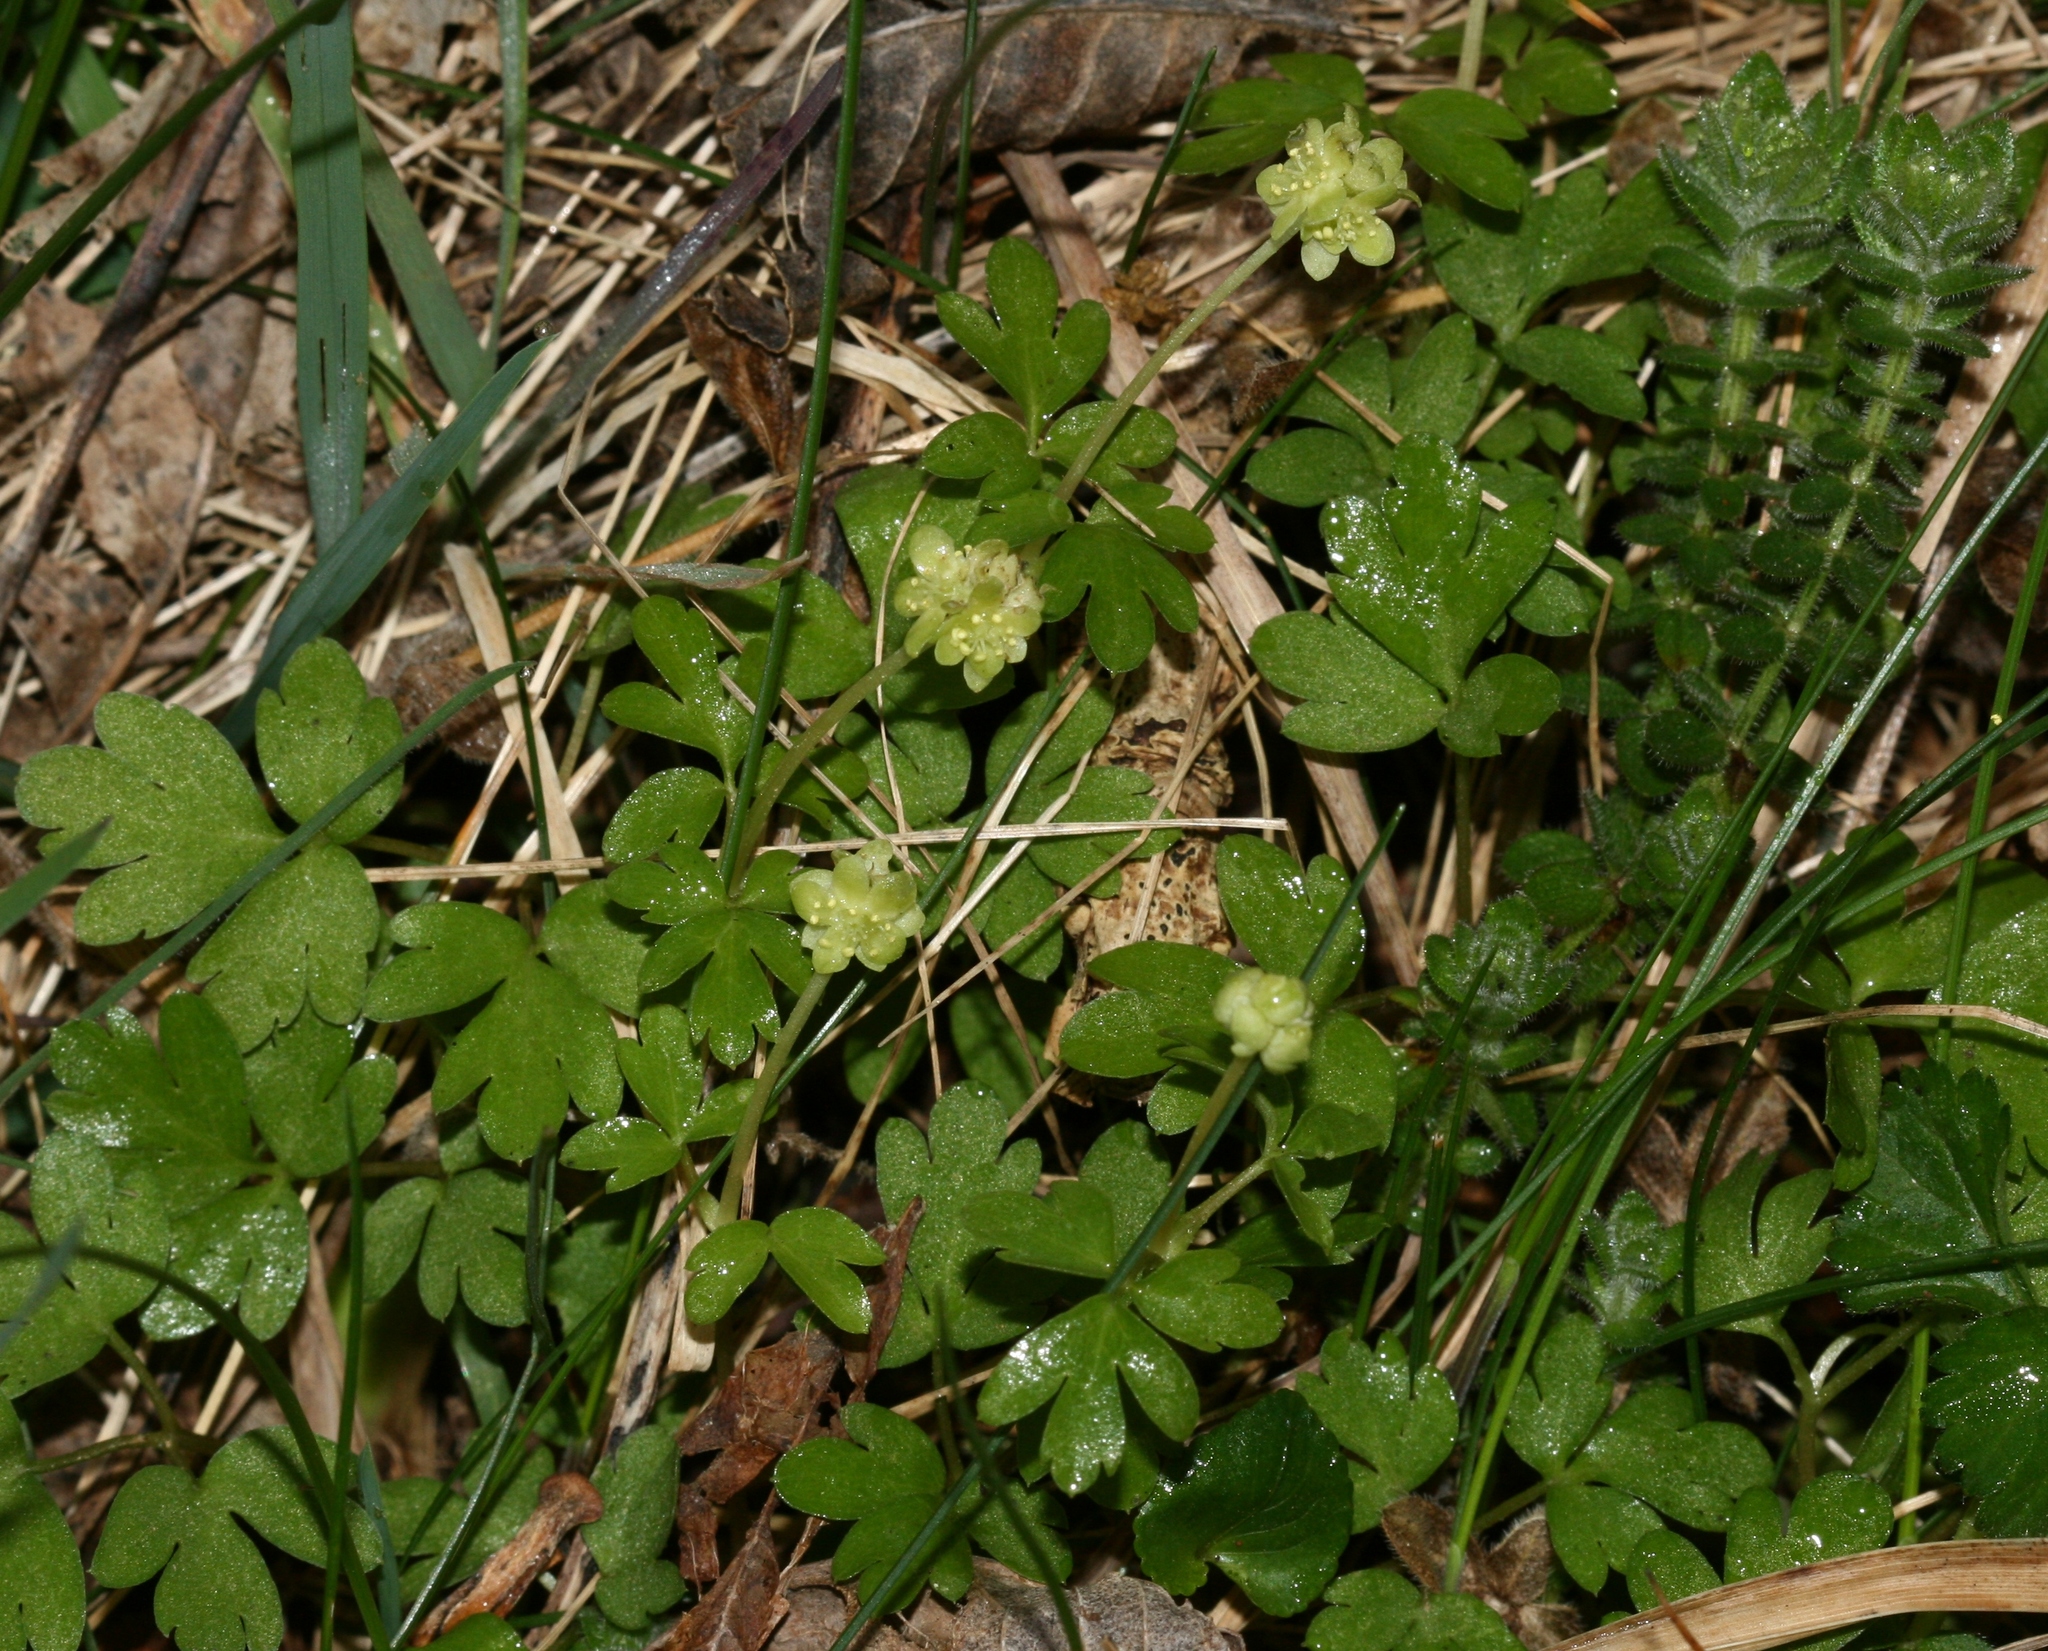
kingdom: Plantae
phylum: Tracheophyta
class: Magnoliopsida
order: Dipsacales
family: Viburnaceae
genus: Adoxa
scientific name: Adoxa moschatellina
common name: Moschatel
